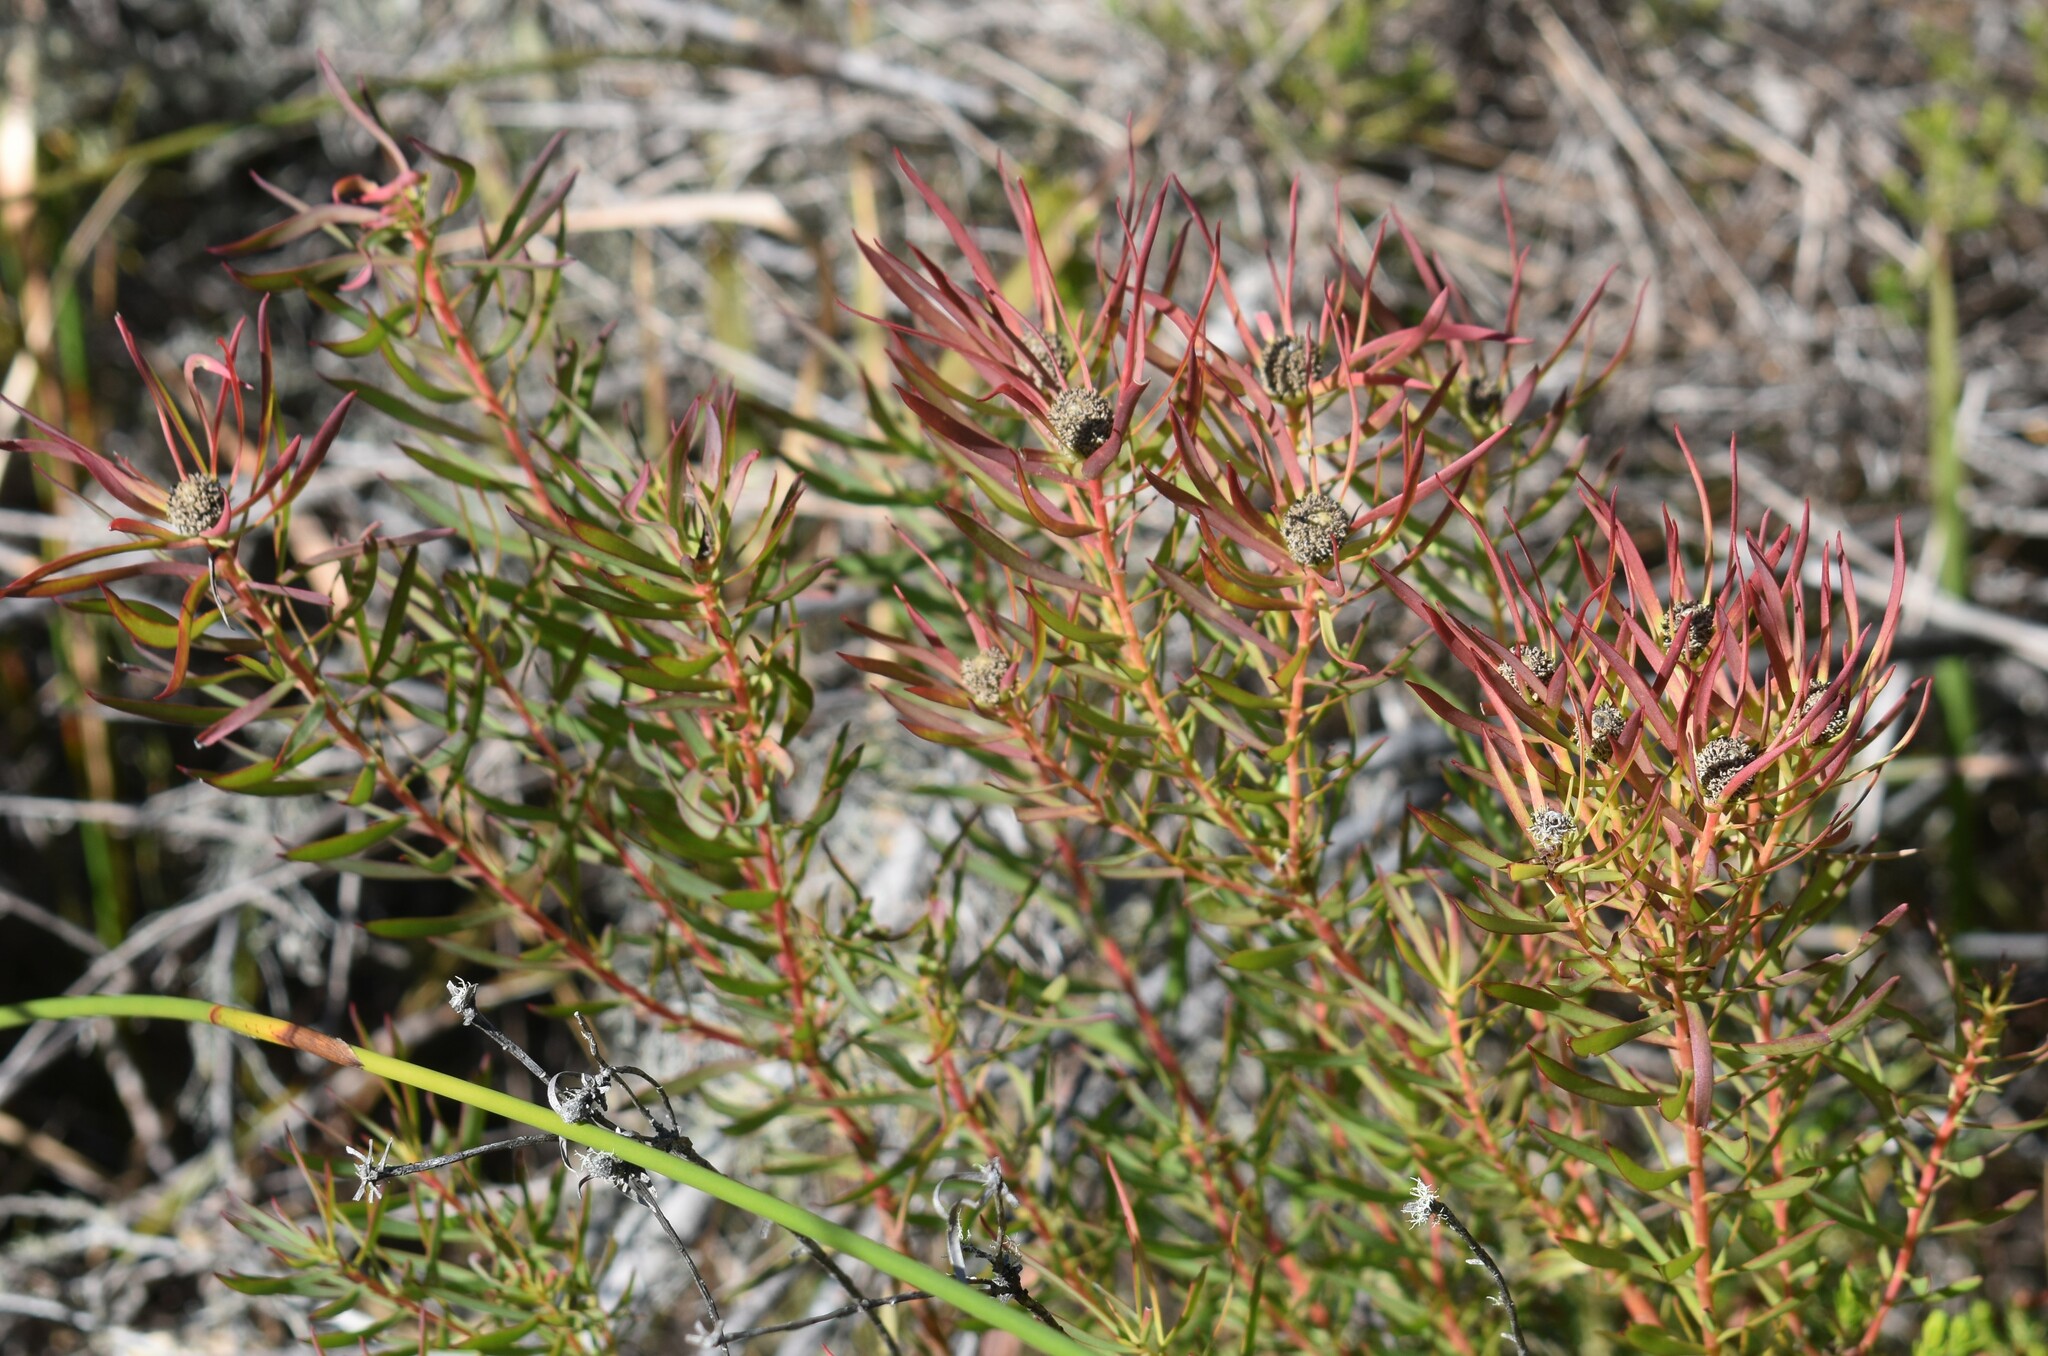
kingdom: Plantae
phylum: Tracheophyta
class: Magnoliopsida
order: Proteales
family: Proteaceae
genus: Leucadendron
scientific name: Leucadendron salignum
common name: Common sunshine conebush
